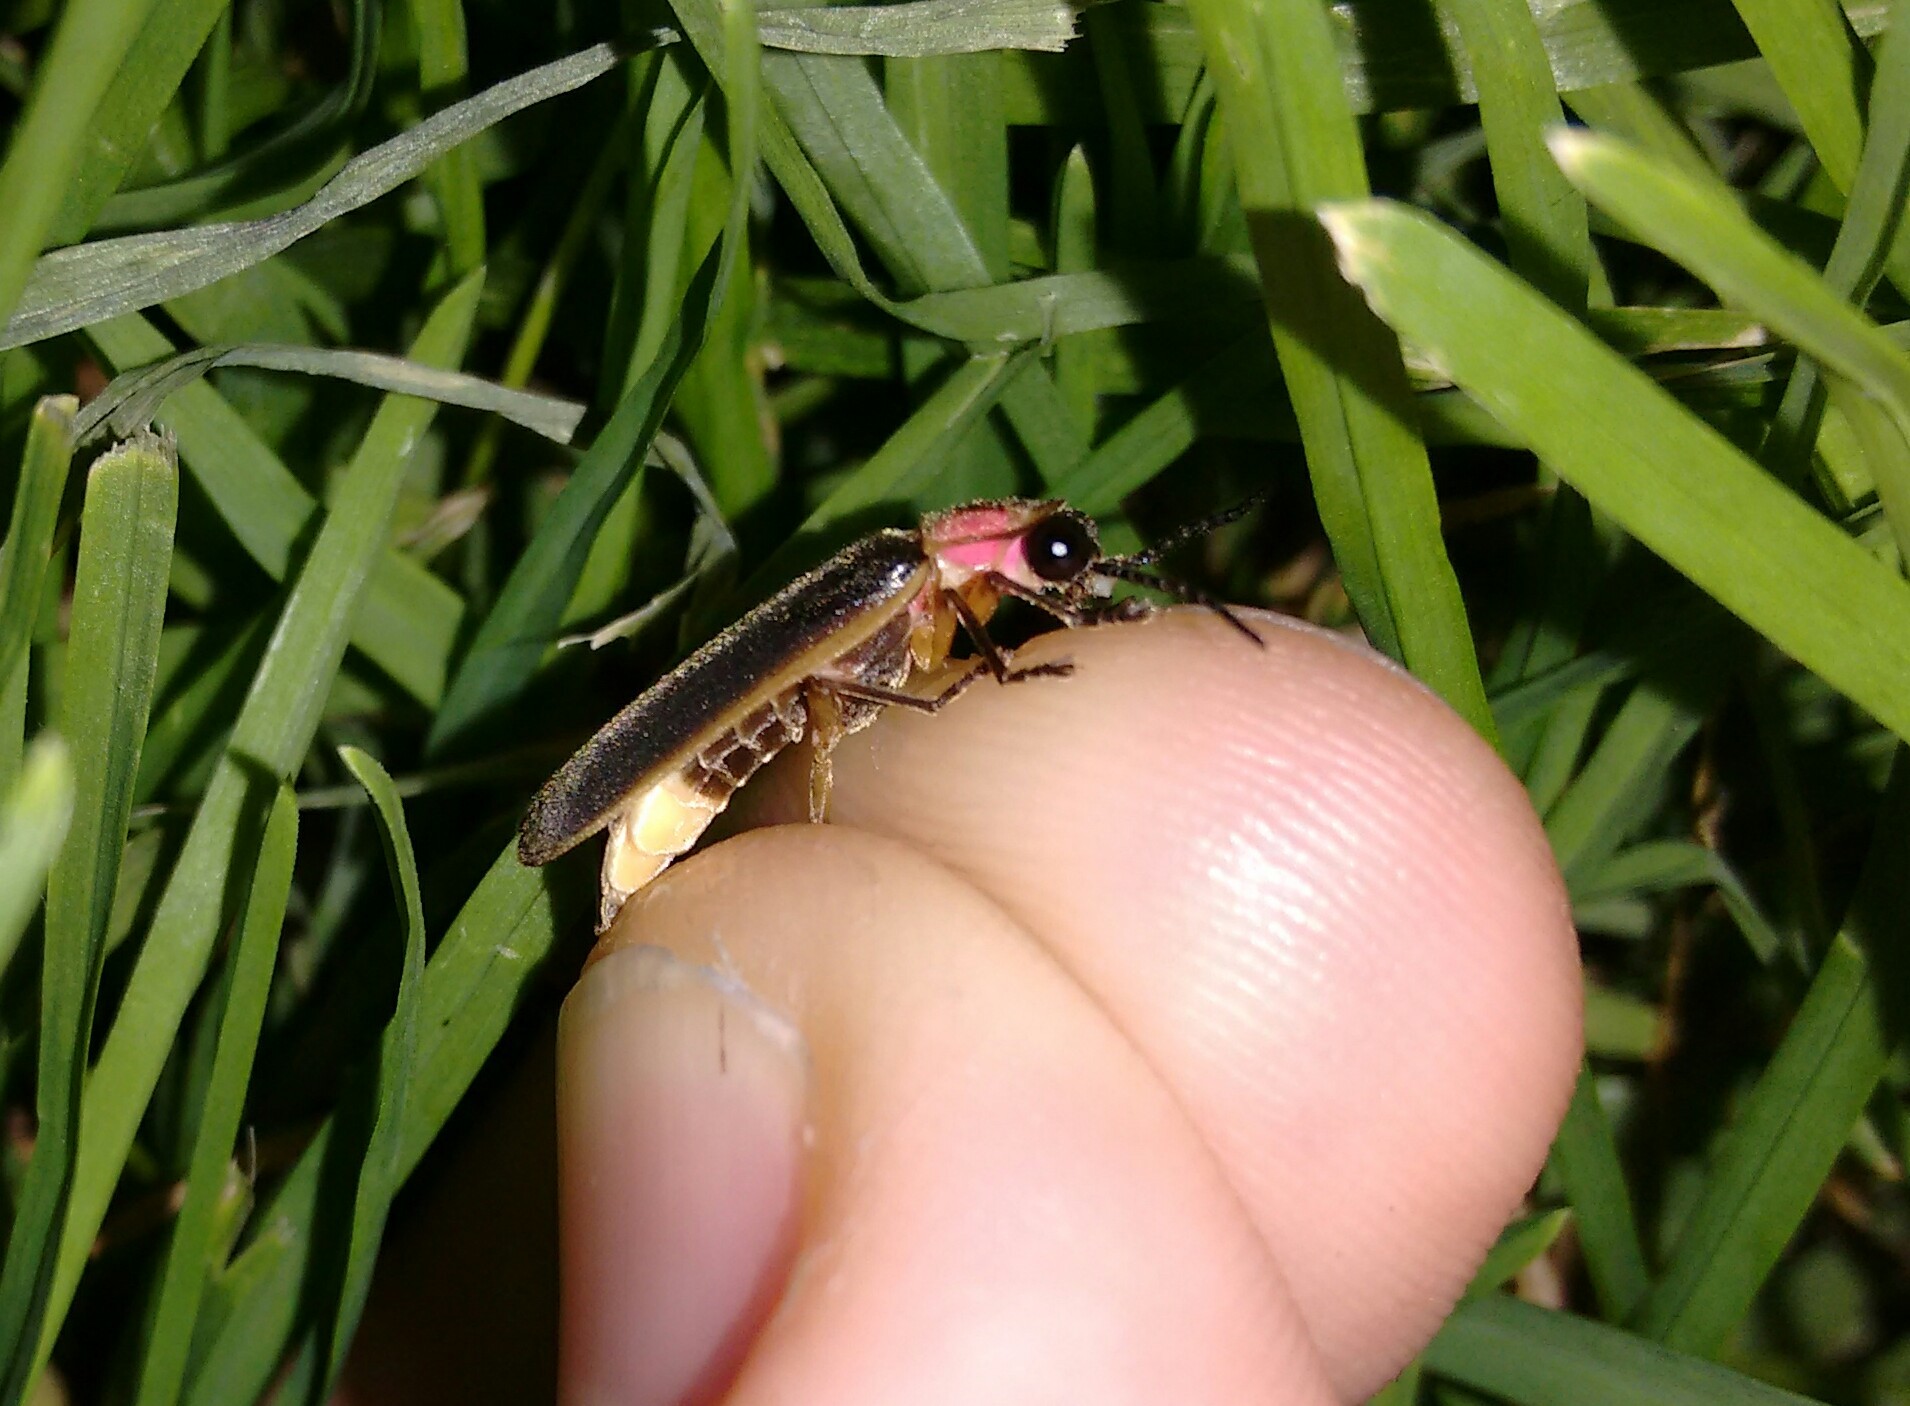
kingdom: Animalia
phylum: Arthropoda
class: Insecta
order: Coleoptera
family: Lampyridae
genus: Photinus
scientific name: Photinus pyralis
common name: Big dipper firefly
